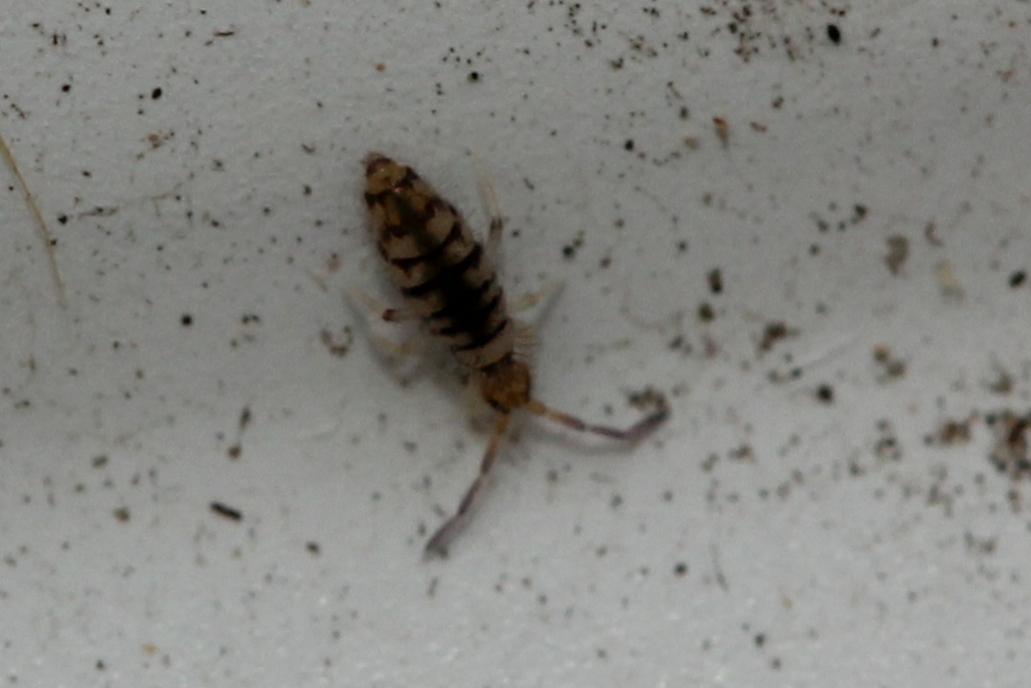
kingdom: Animalia
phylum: Arthropoda
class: Collembola
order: Entomobryomorpha
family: Entomobryidae
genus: Entomobrya
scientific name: Entomobrya atrocincta
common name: Springtail
